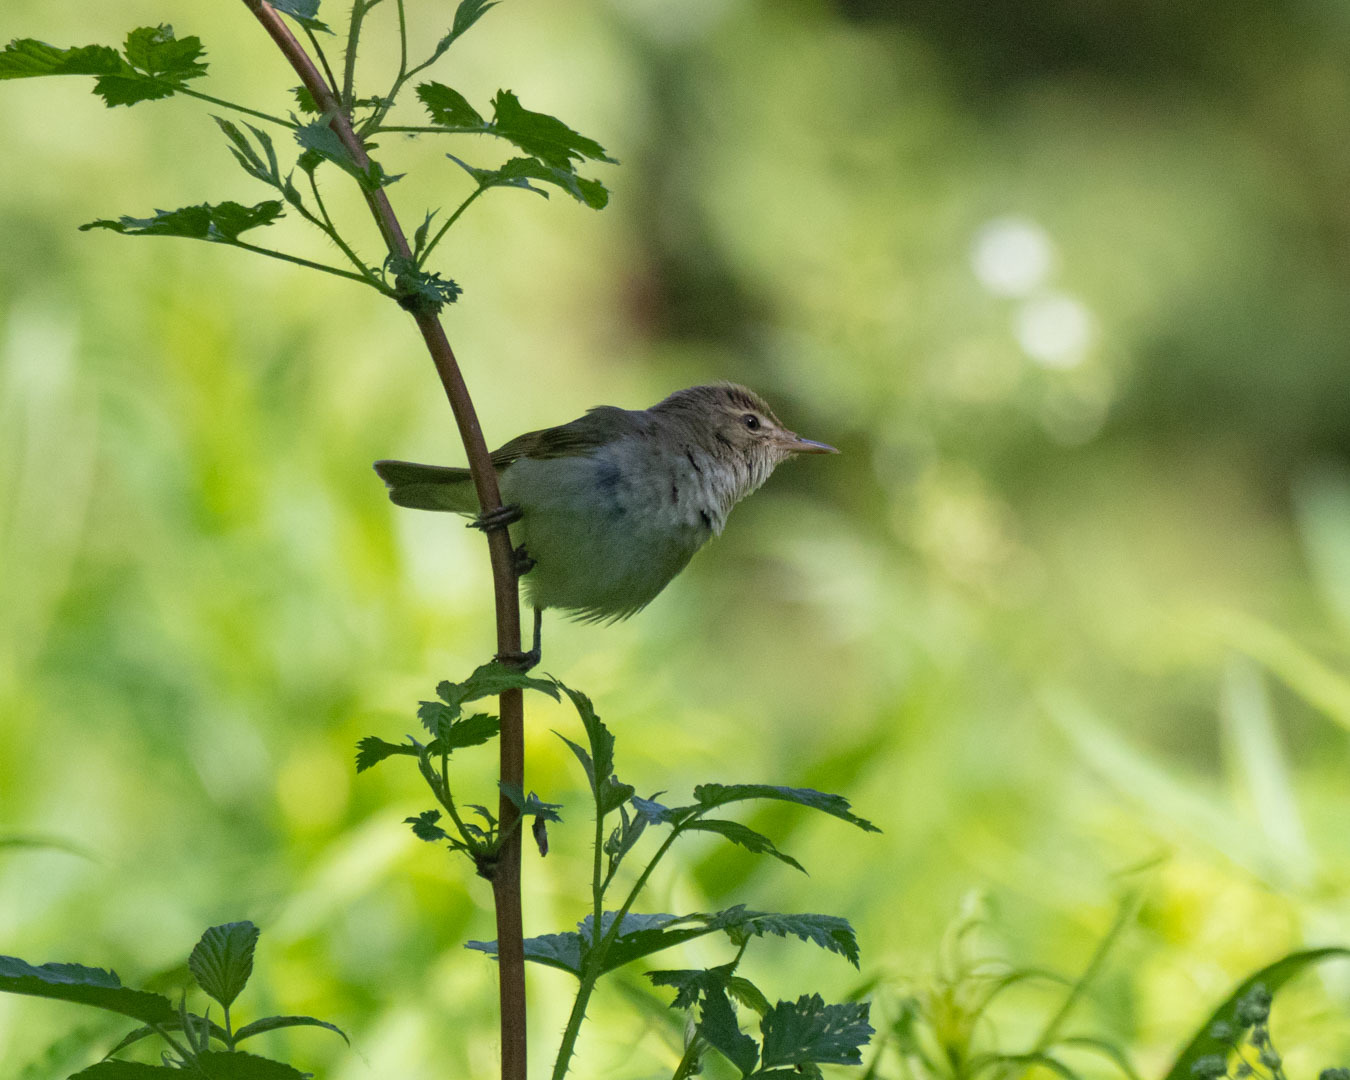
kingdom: Animalia
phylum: Chordata
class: Aves
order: Passeriformes
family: Acrocephalidae
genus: Acrocephalus
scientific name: Acrocephalus dumetorum
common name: Blyth's reed warbler
